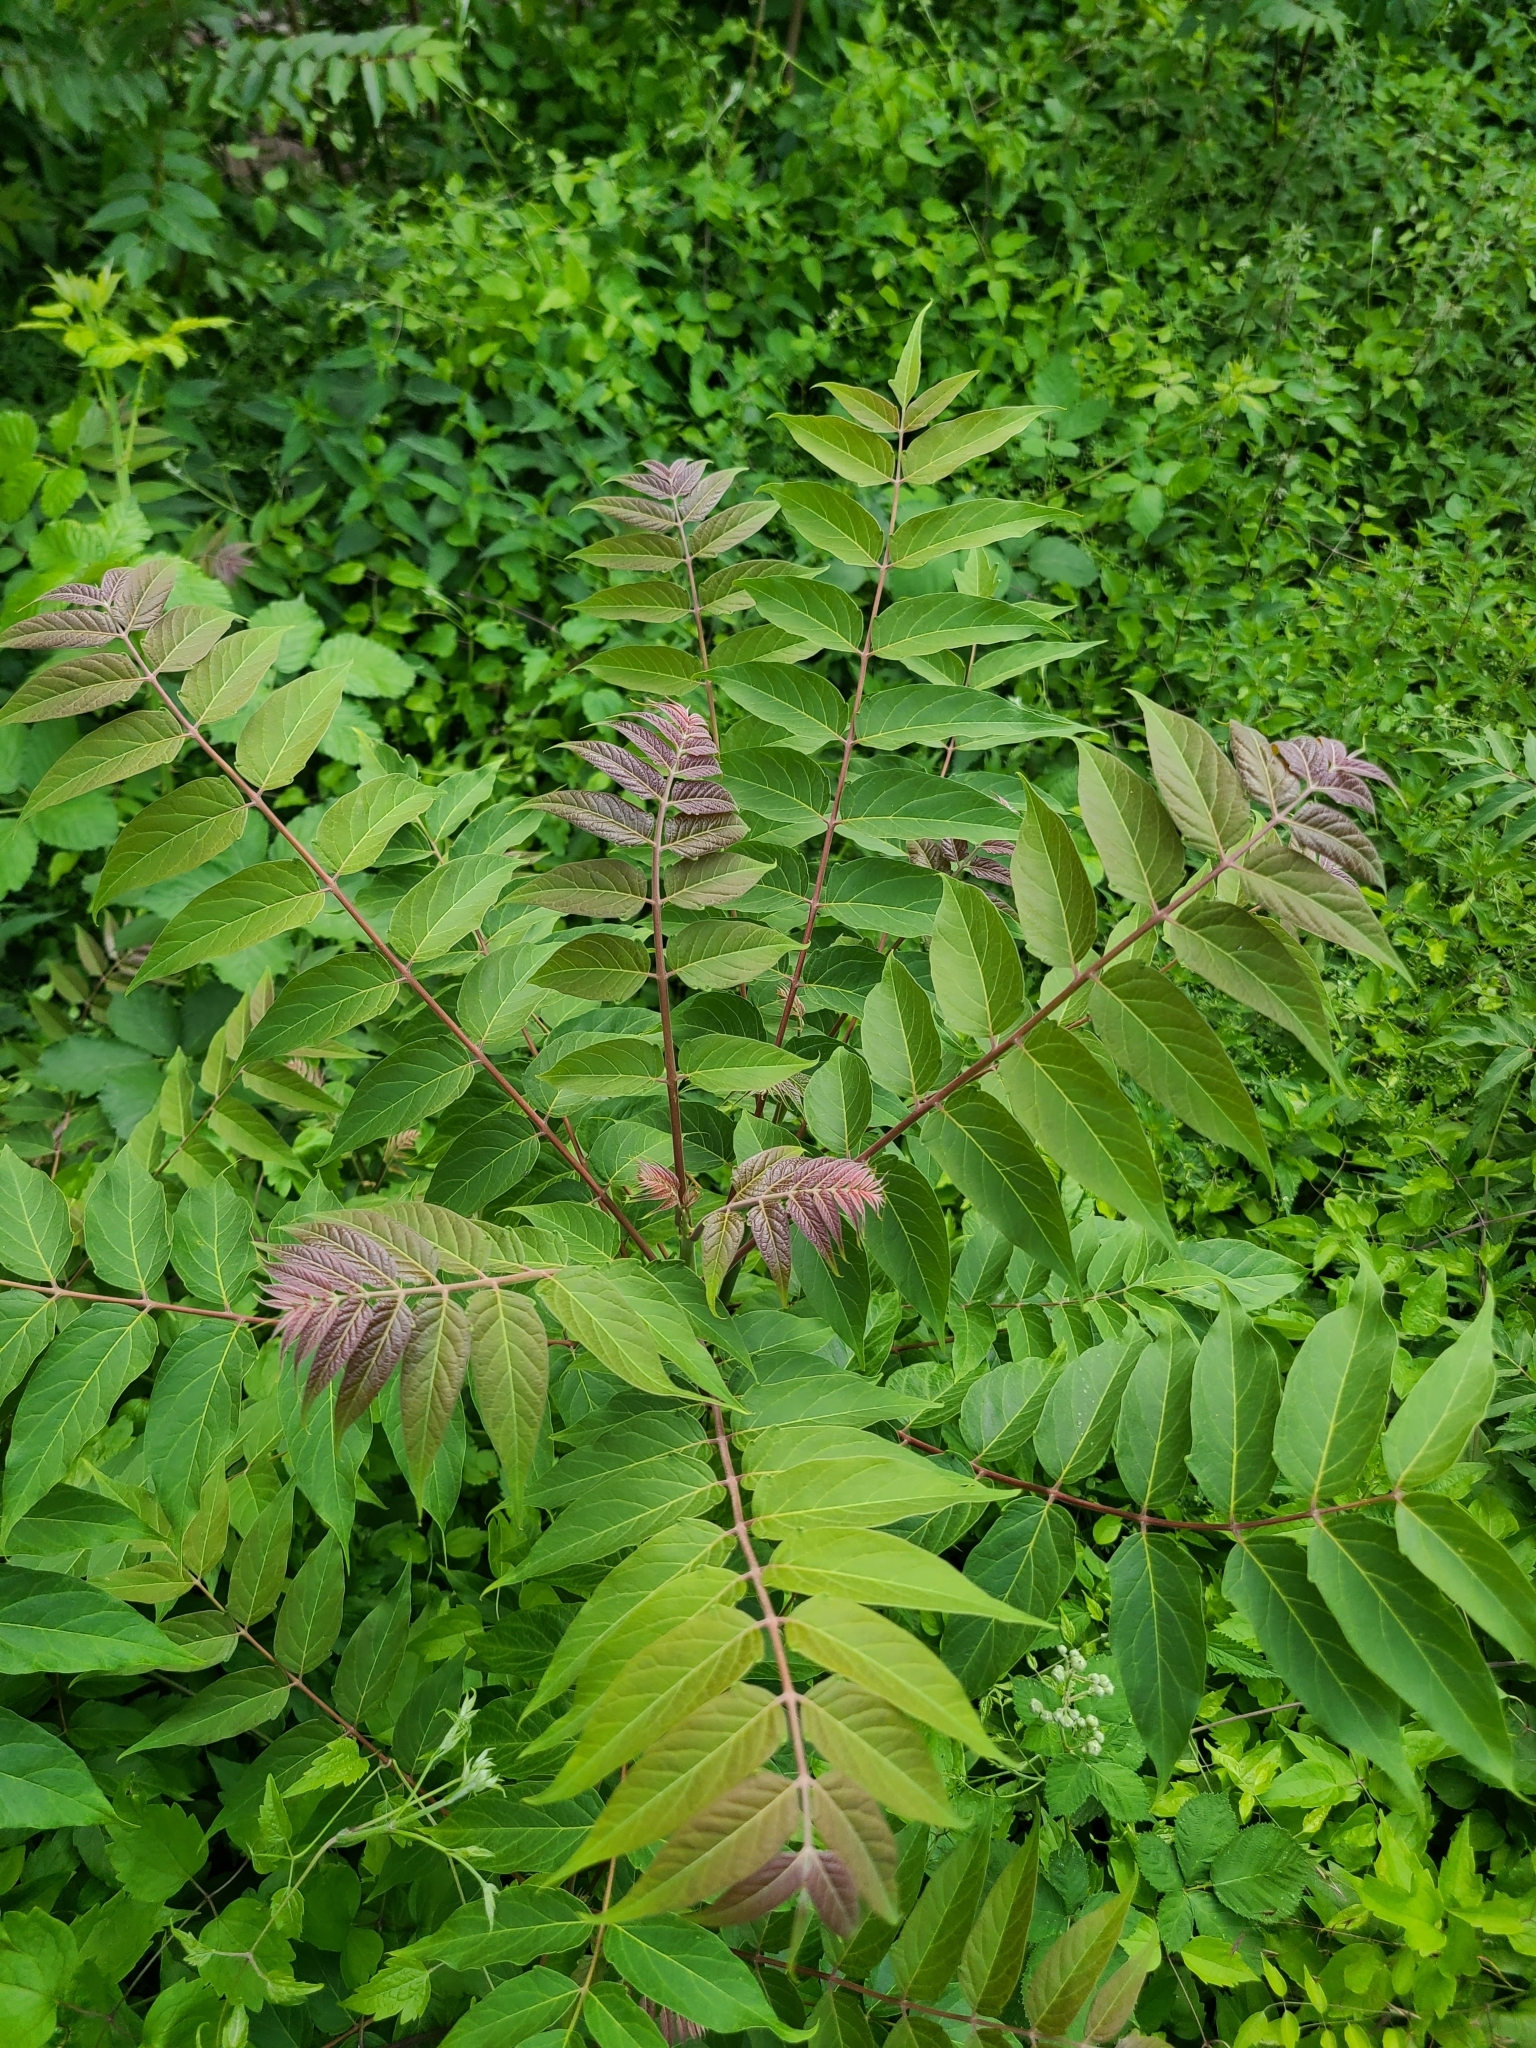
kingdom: Plantae
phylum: Tracheophyta
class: Magnoliopsida
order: Sapindales
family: Simaroubaceae
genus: Ailanthus
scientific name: Ailanthus altissima
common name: Tree-of-heaven
